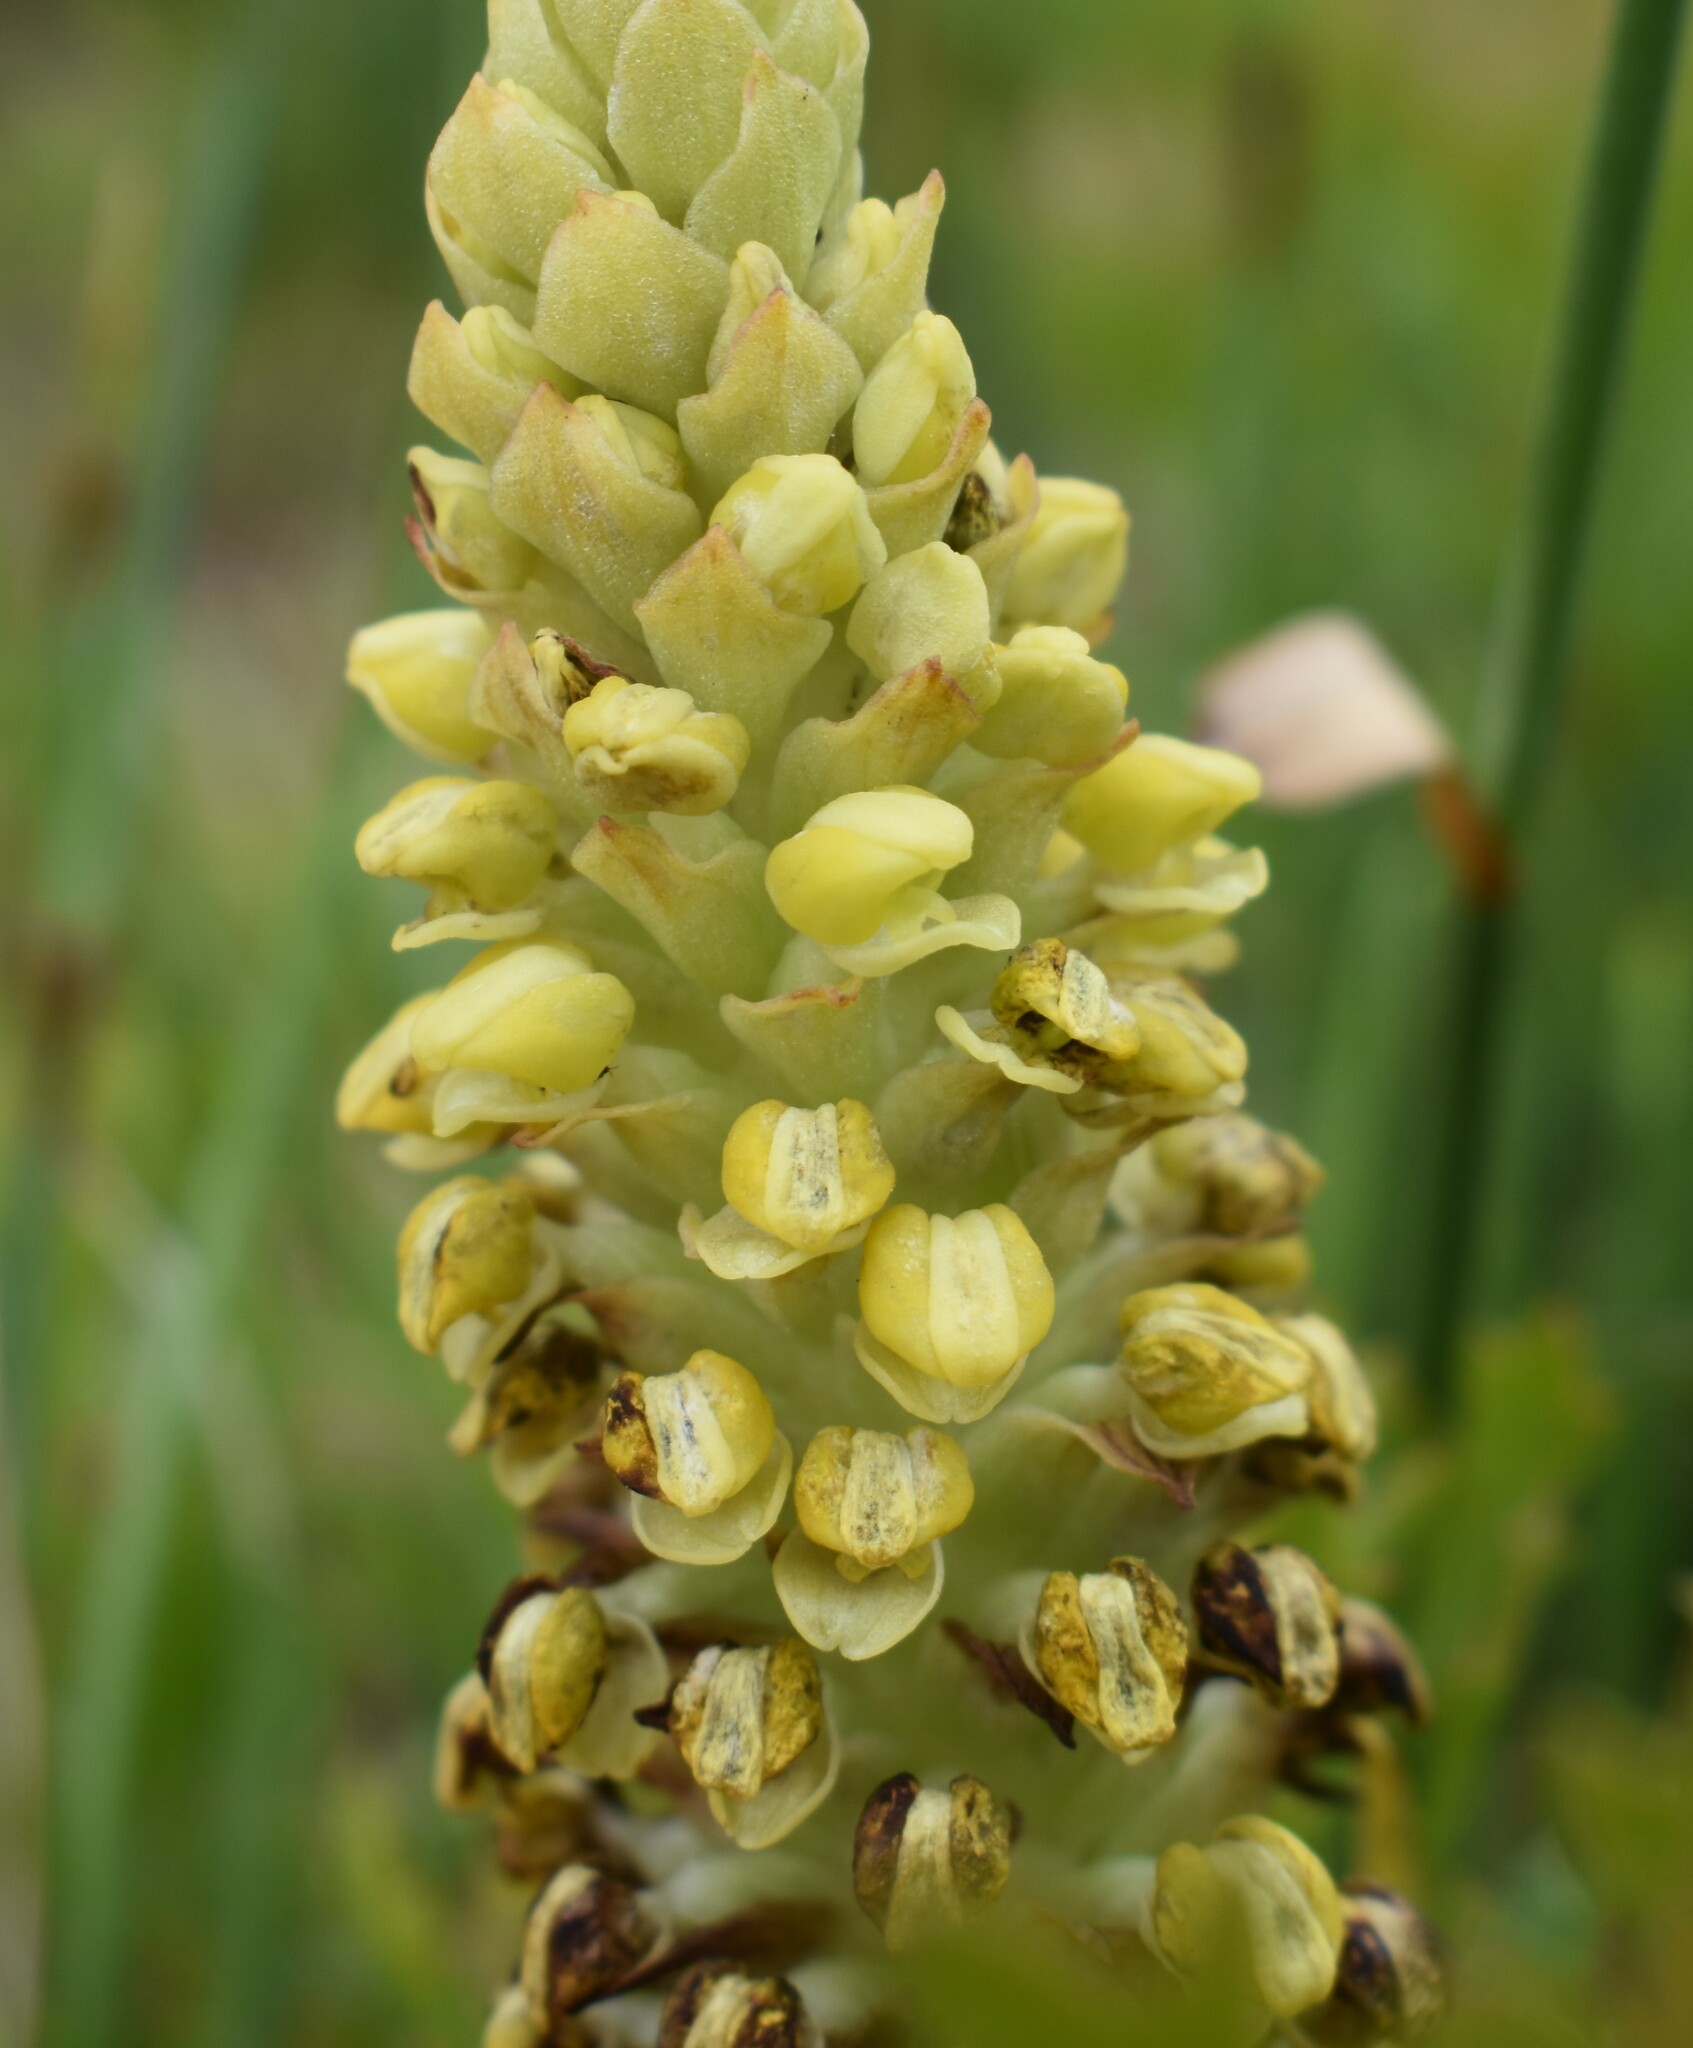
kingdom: Plantae
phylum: Tracheophyta
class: Liliopsida
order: Asparagales
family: Orchidaceae
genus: Corycium
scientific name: Corycium bicolorum
